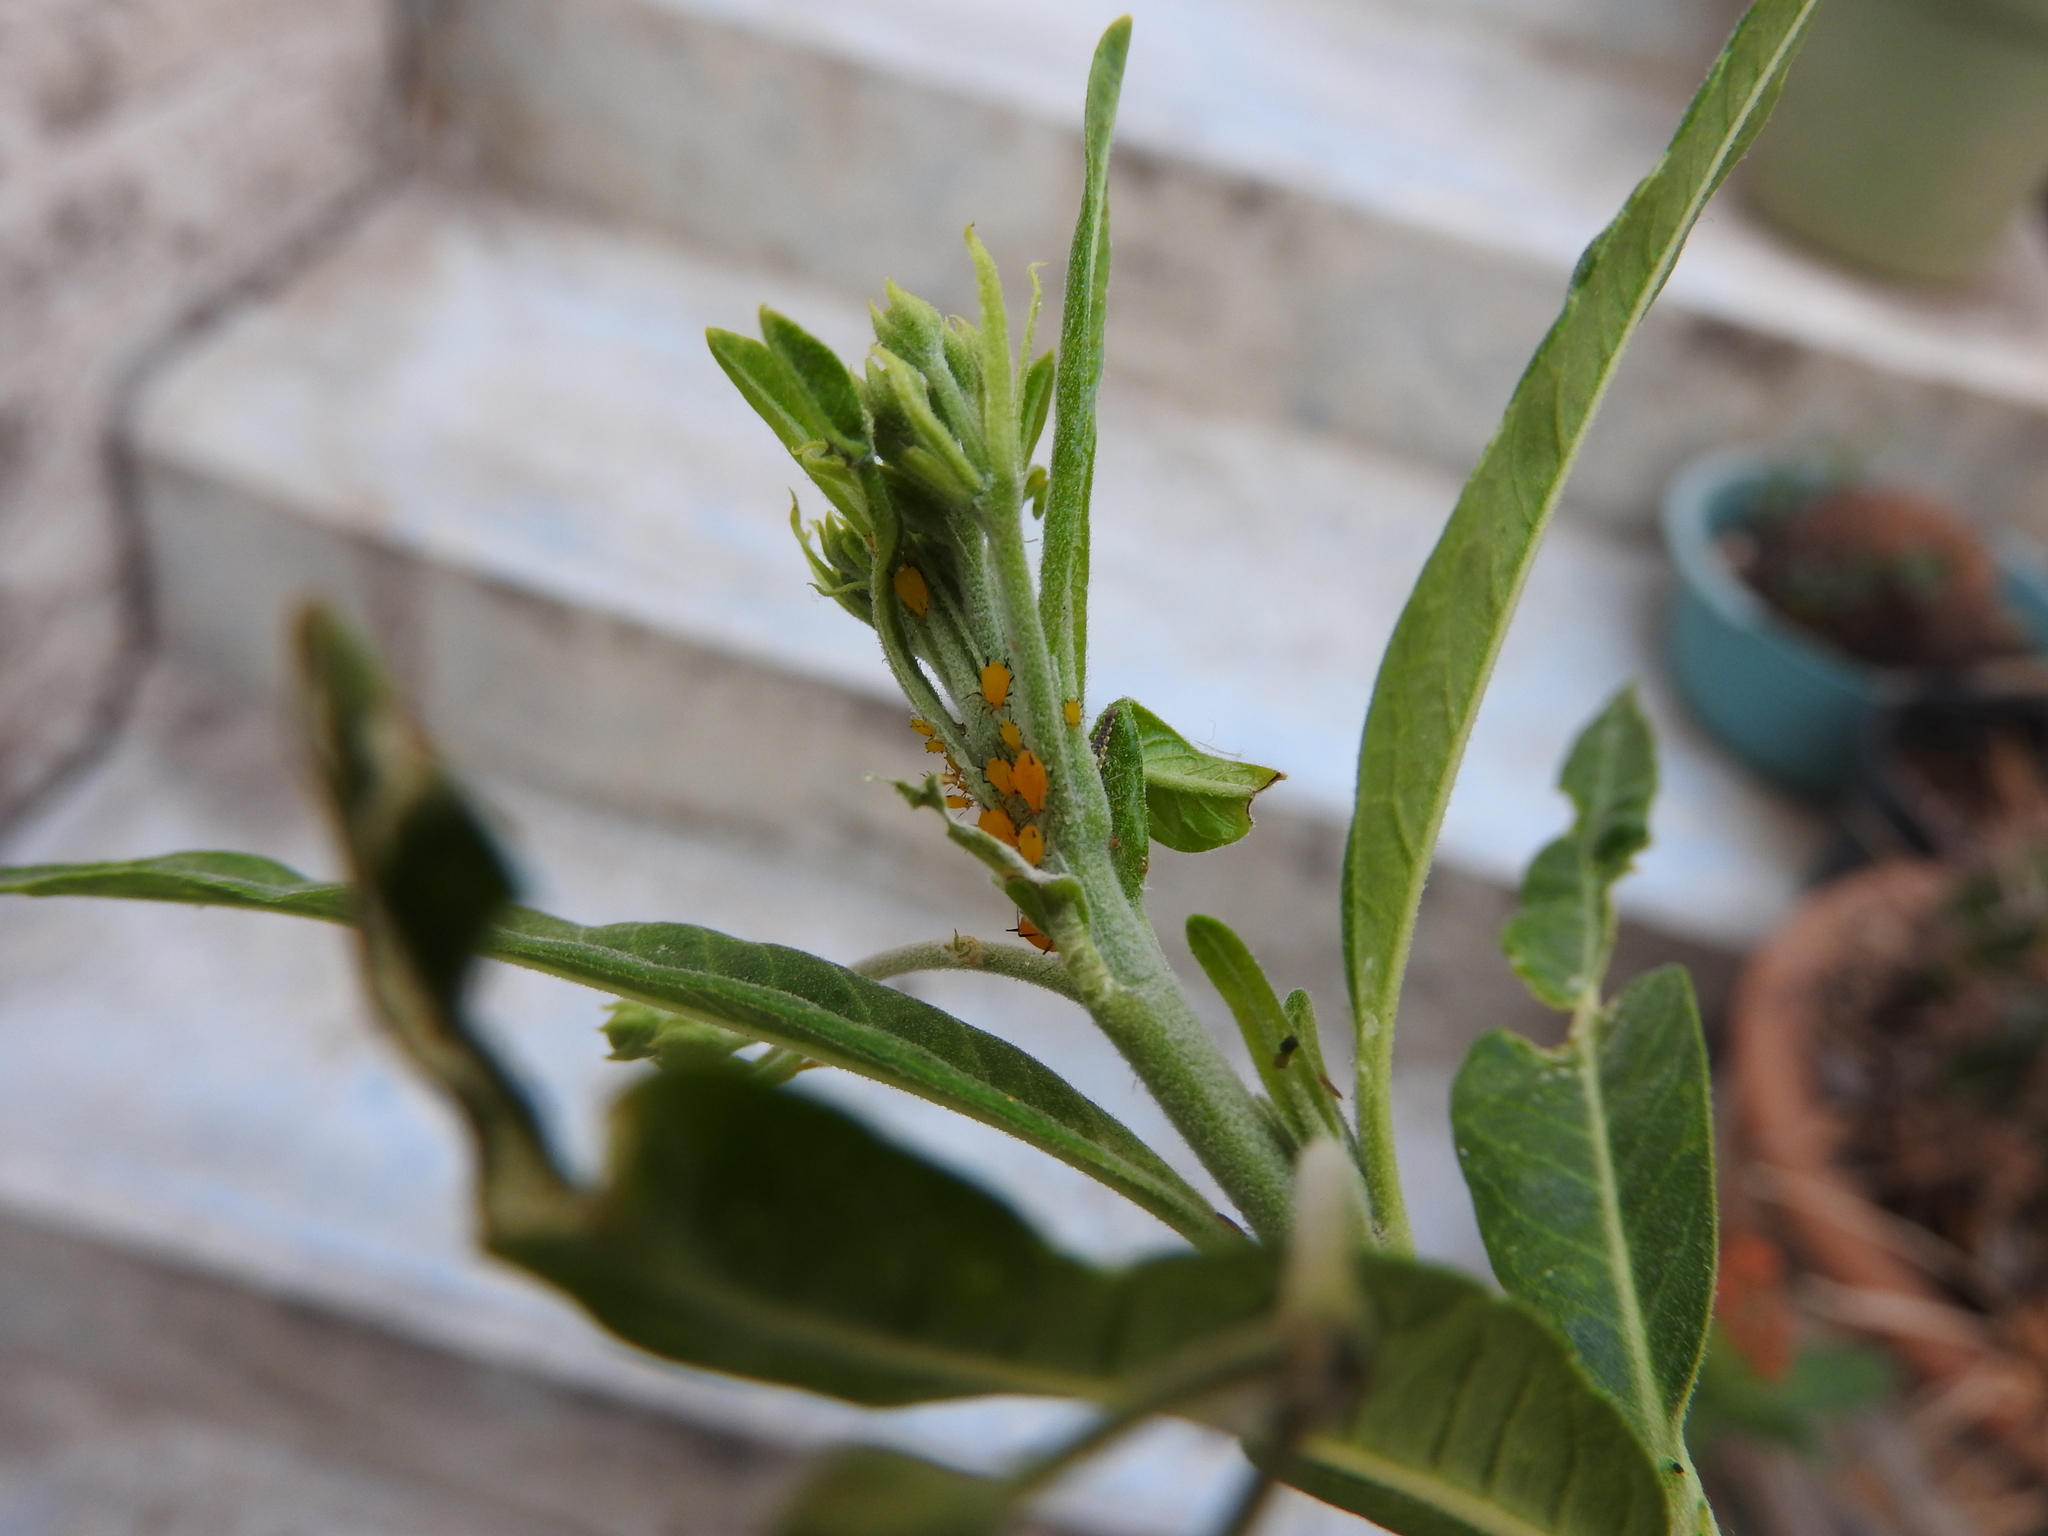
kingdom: Animalia
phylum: Arthropoda
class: Insecta
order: Hemiptera
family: Aphididae
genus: Aphis
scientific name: Aphis nerii
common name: Oleander aphid
